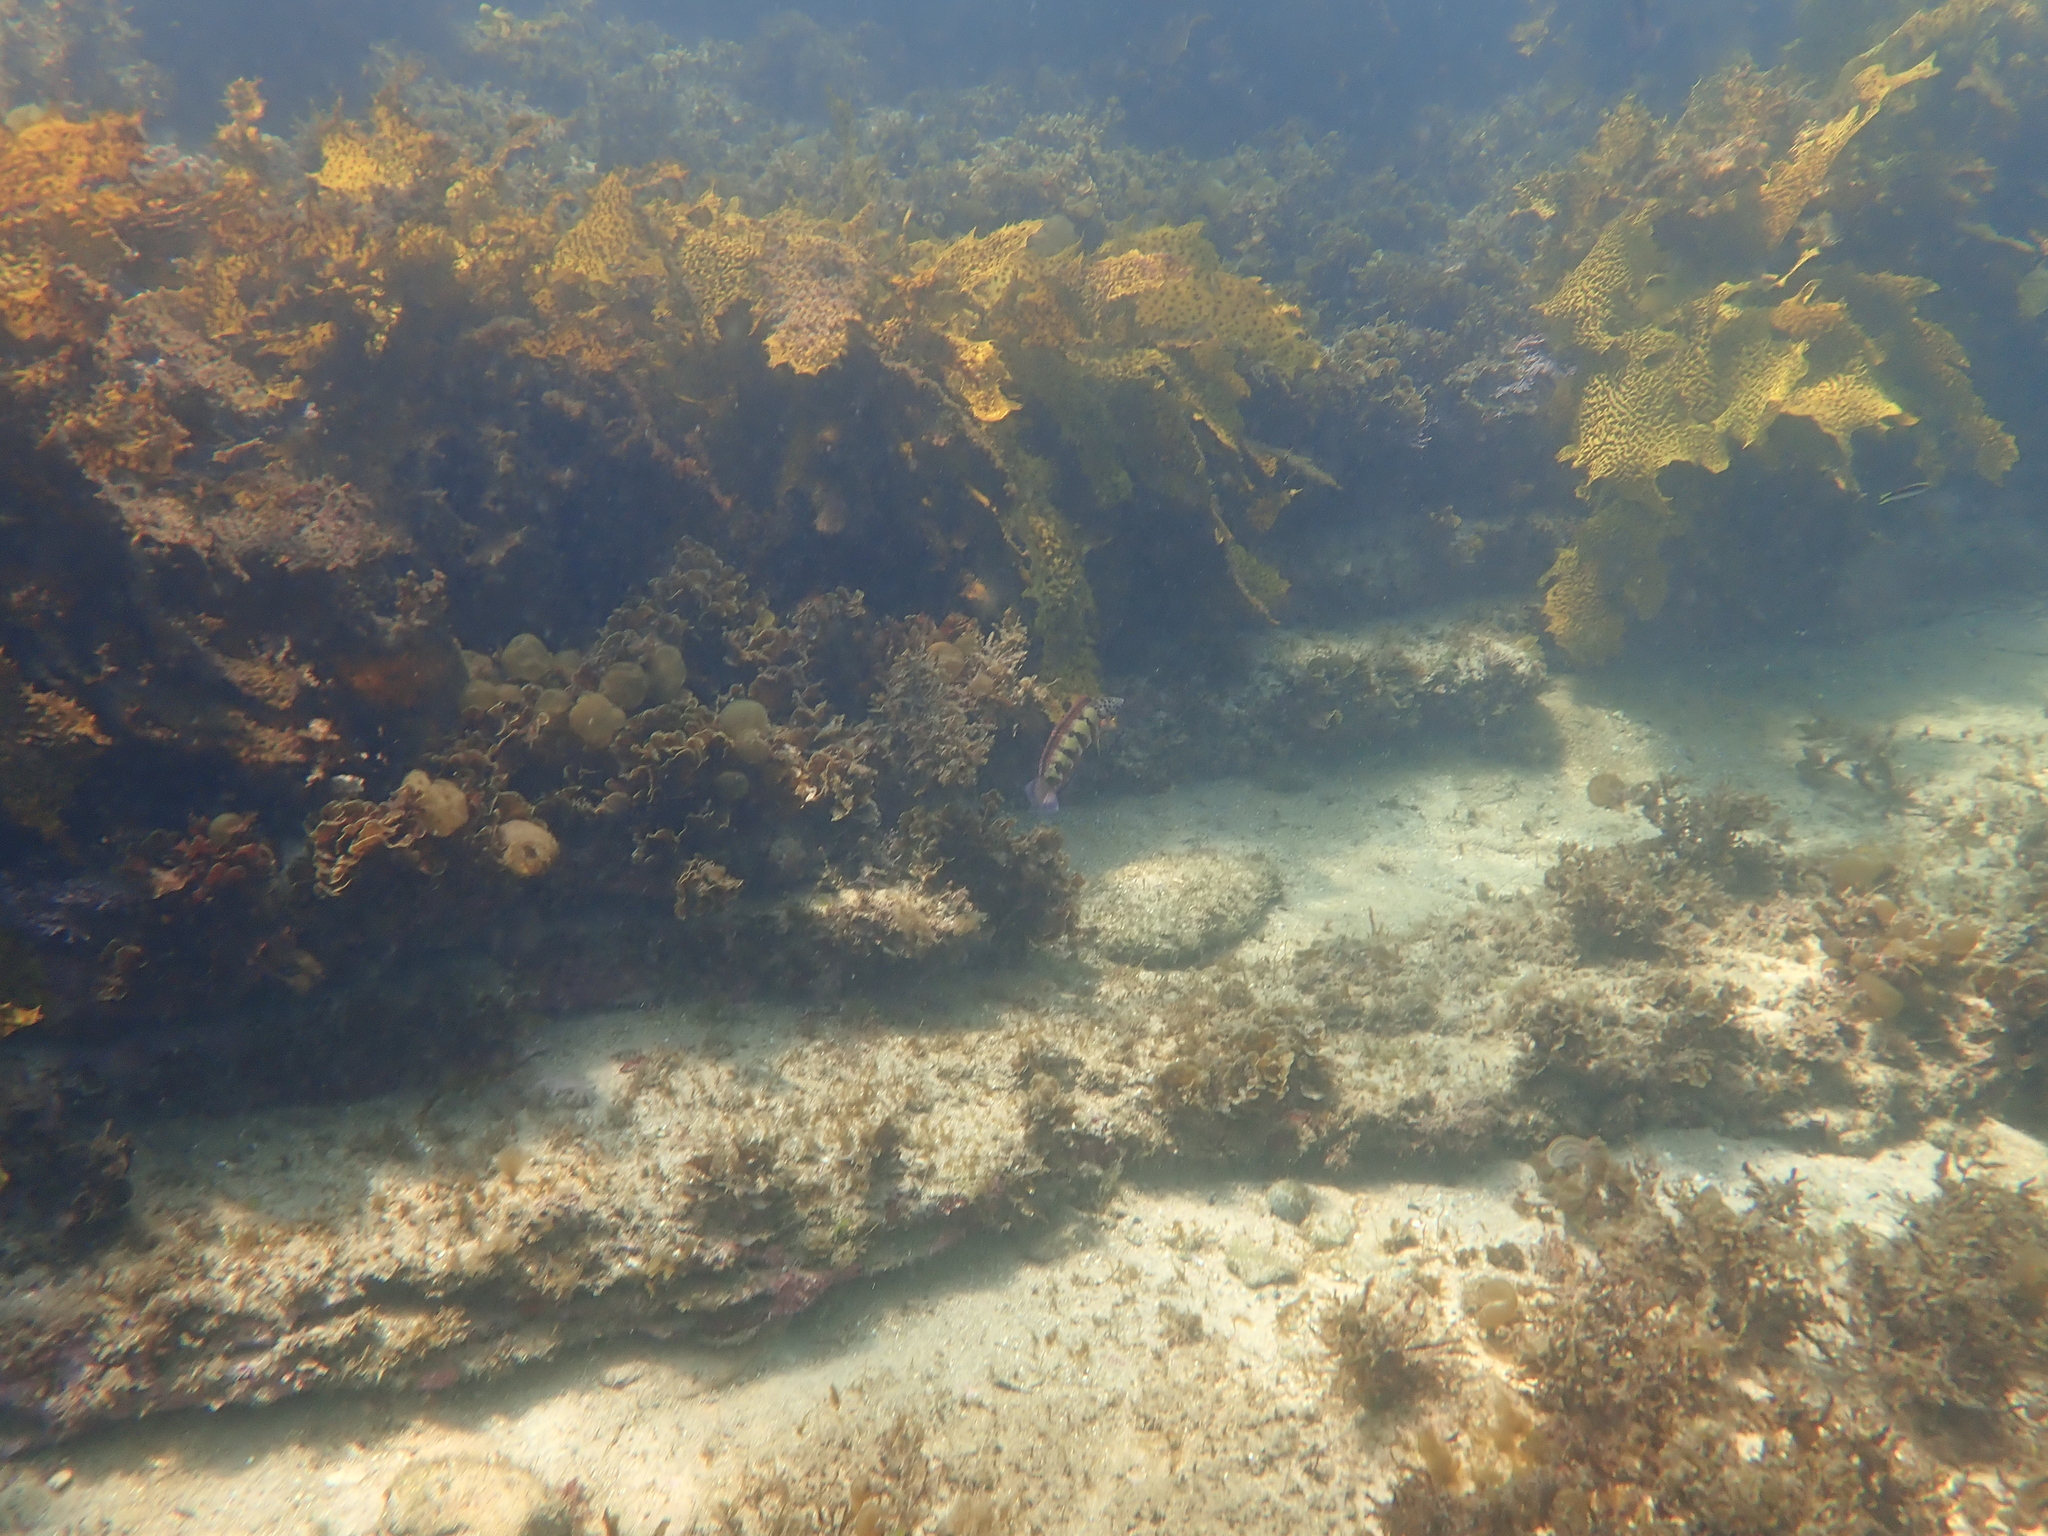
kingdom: Animalia
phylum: Chordata
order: Perciformes
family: Labridae
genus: Eupetrichthys
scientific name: Eupetrichthys angustipes
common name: Snake-skin wrasse
